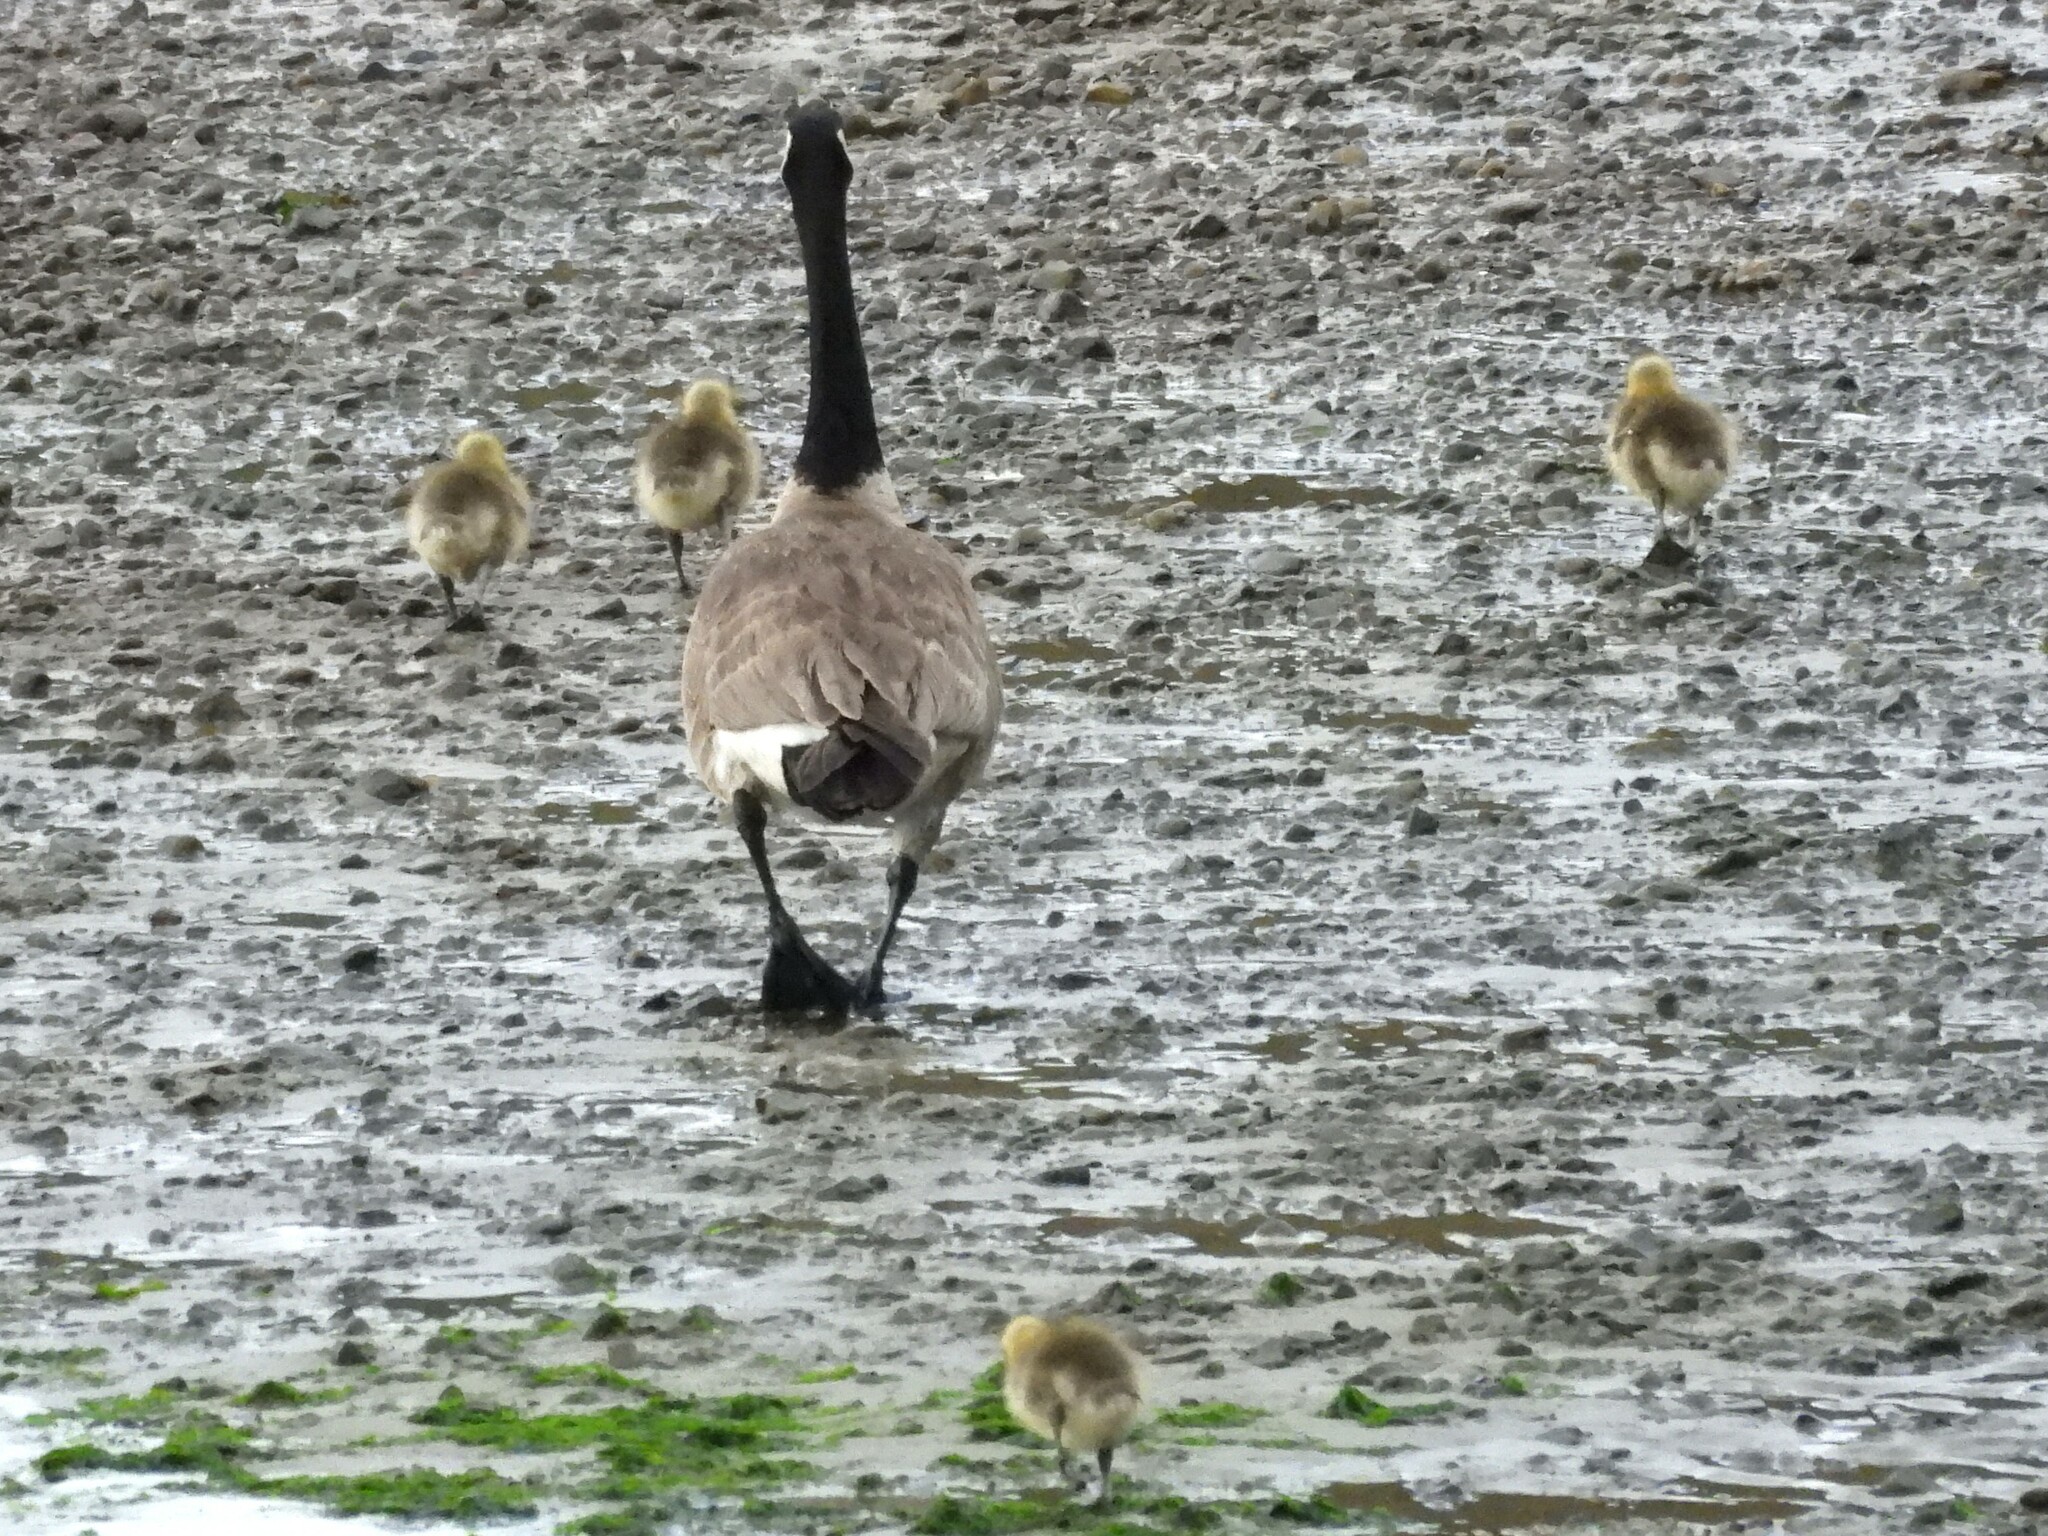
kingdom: Animalia
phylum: Chordata
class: Aves
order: Anseriformes
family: Anatidae
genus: Branta
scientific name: Branta canadensis
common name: Canada goose
